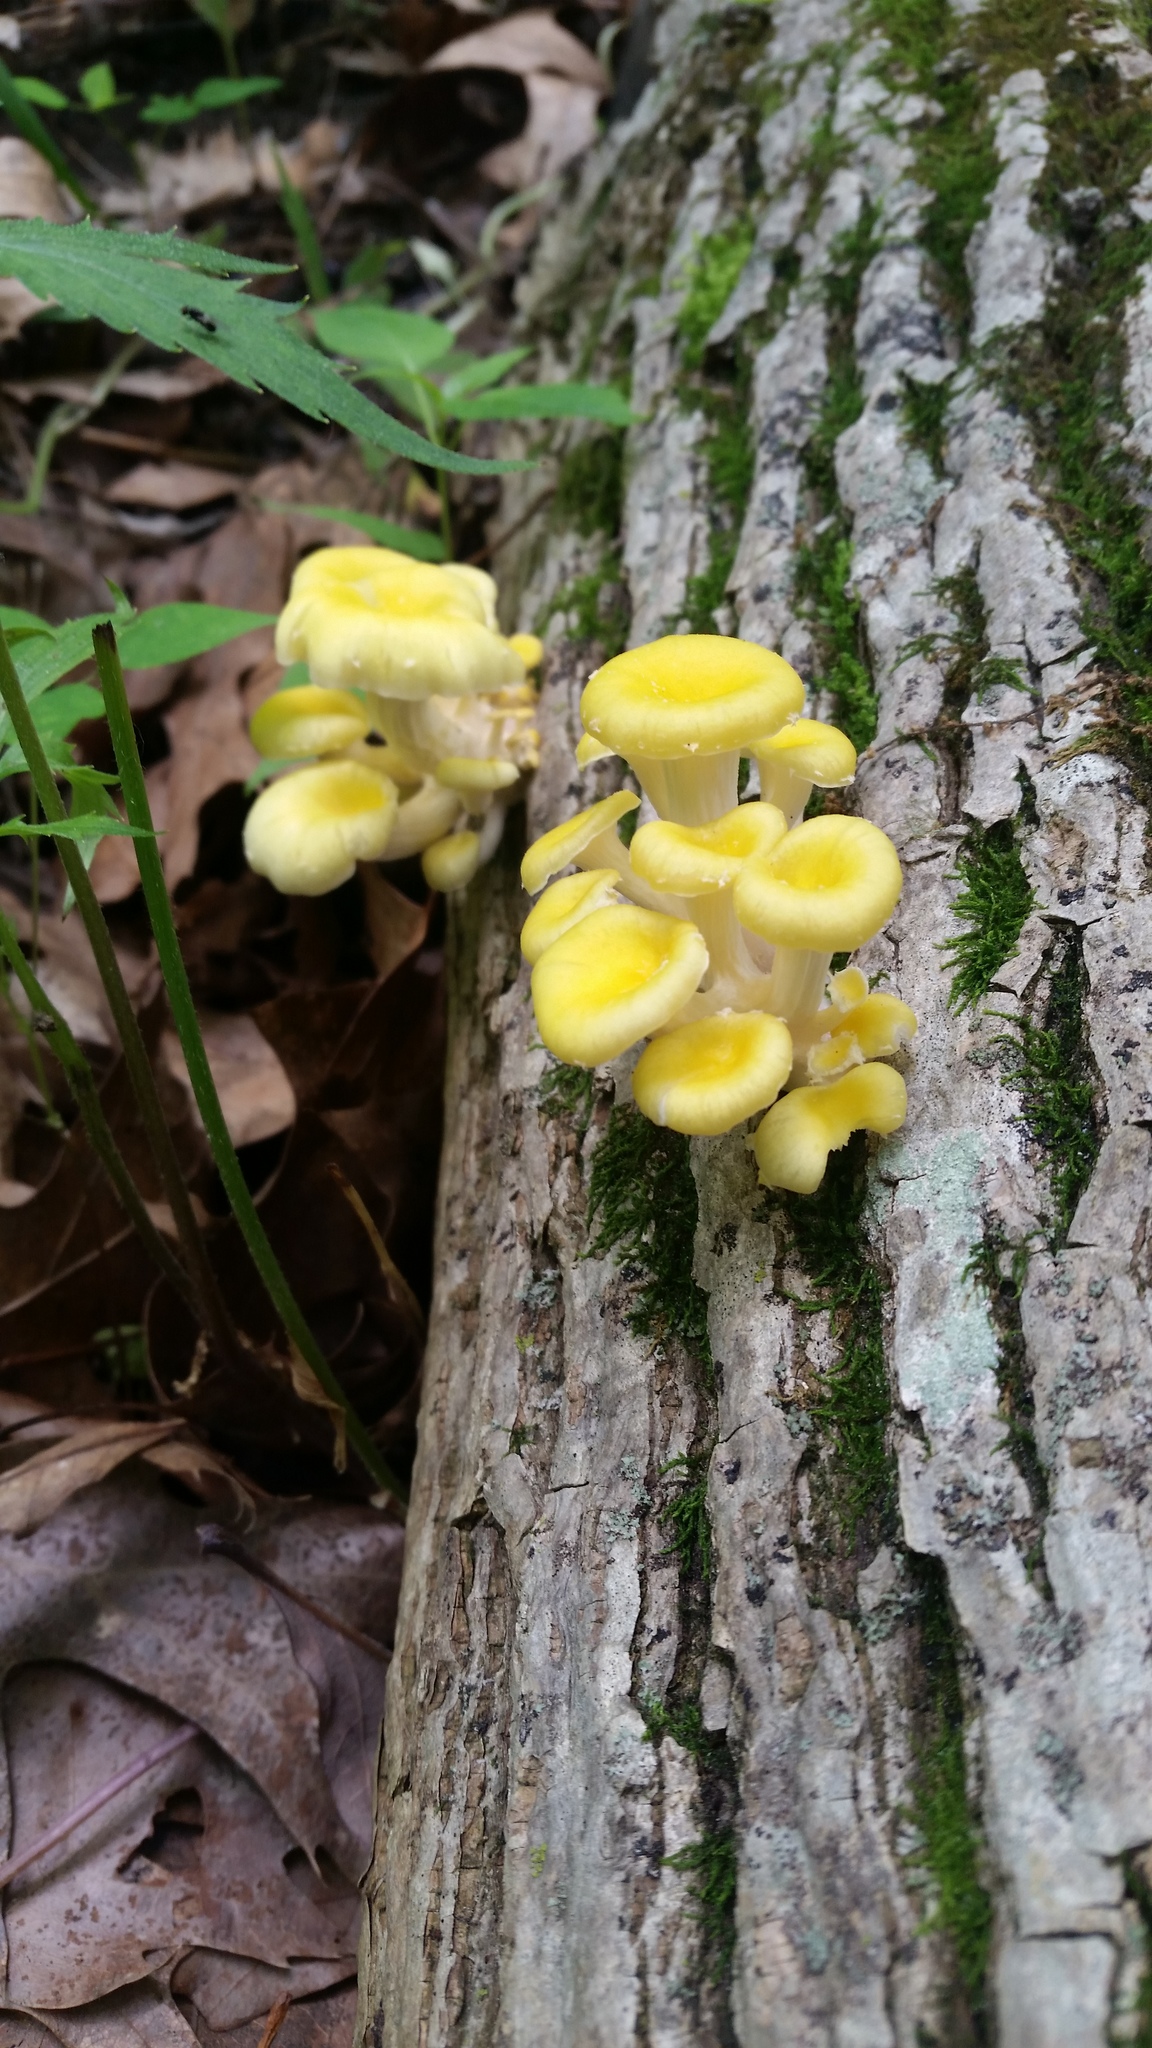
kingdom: Fungi
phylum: Basidiomycota
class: Agaricomycetes
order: Agaricales
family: Pleurotaceae
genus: Pleurotus
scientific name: Pleurotus citrinopileatus
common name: Golden oyster mushroom
